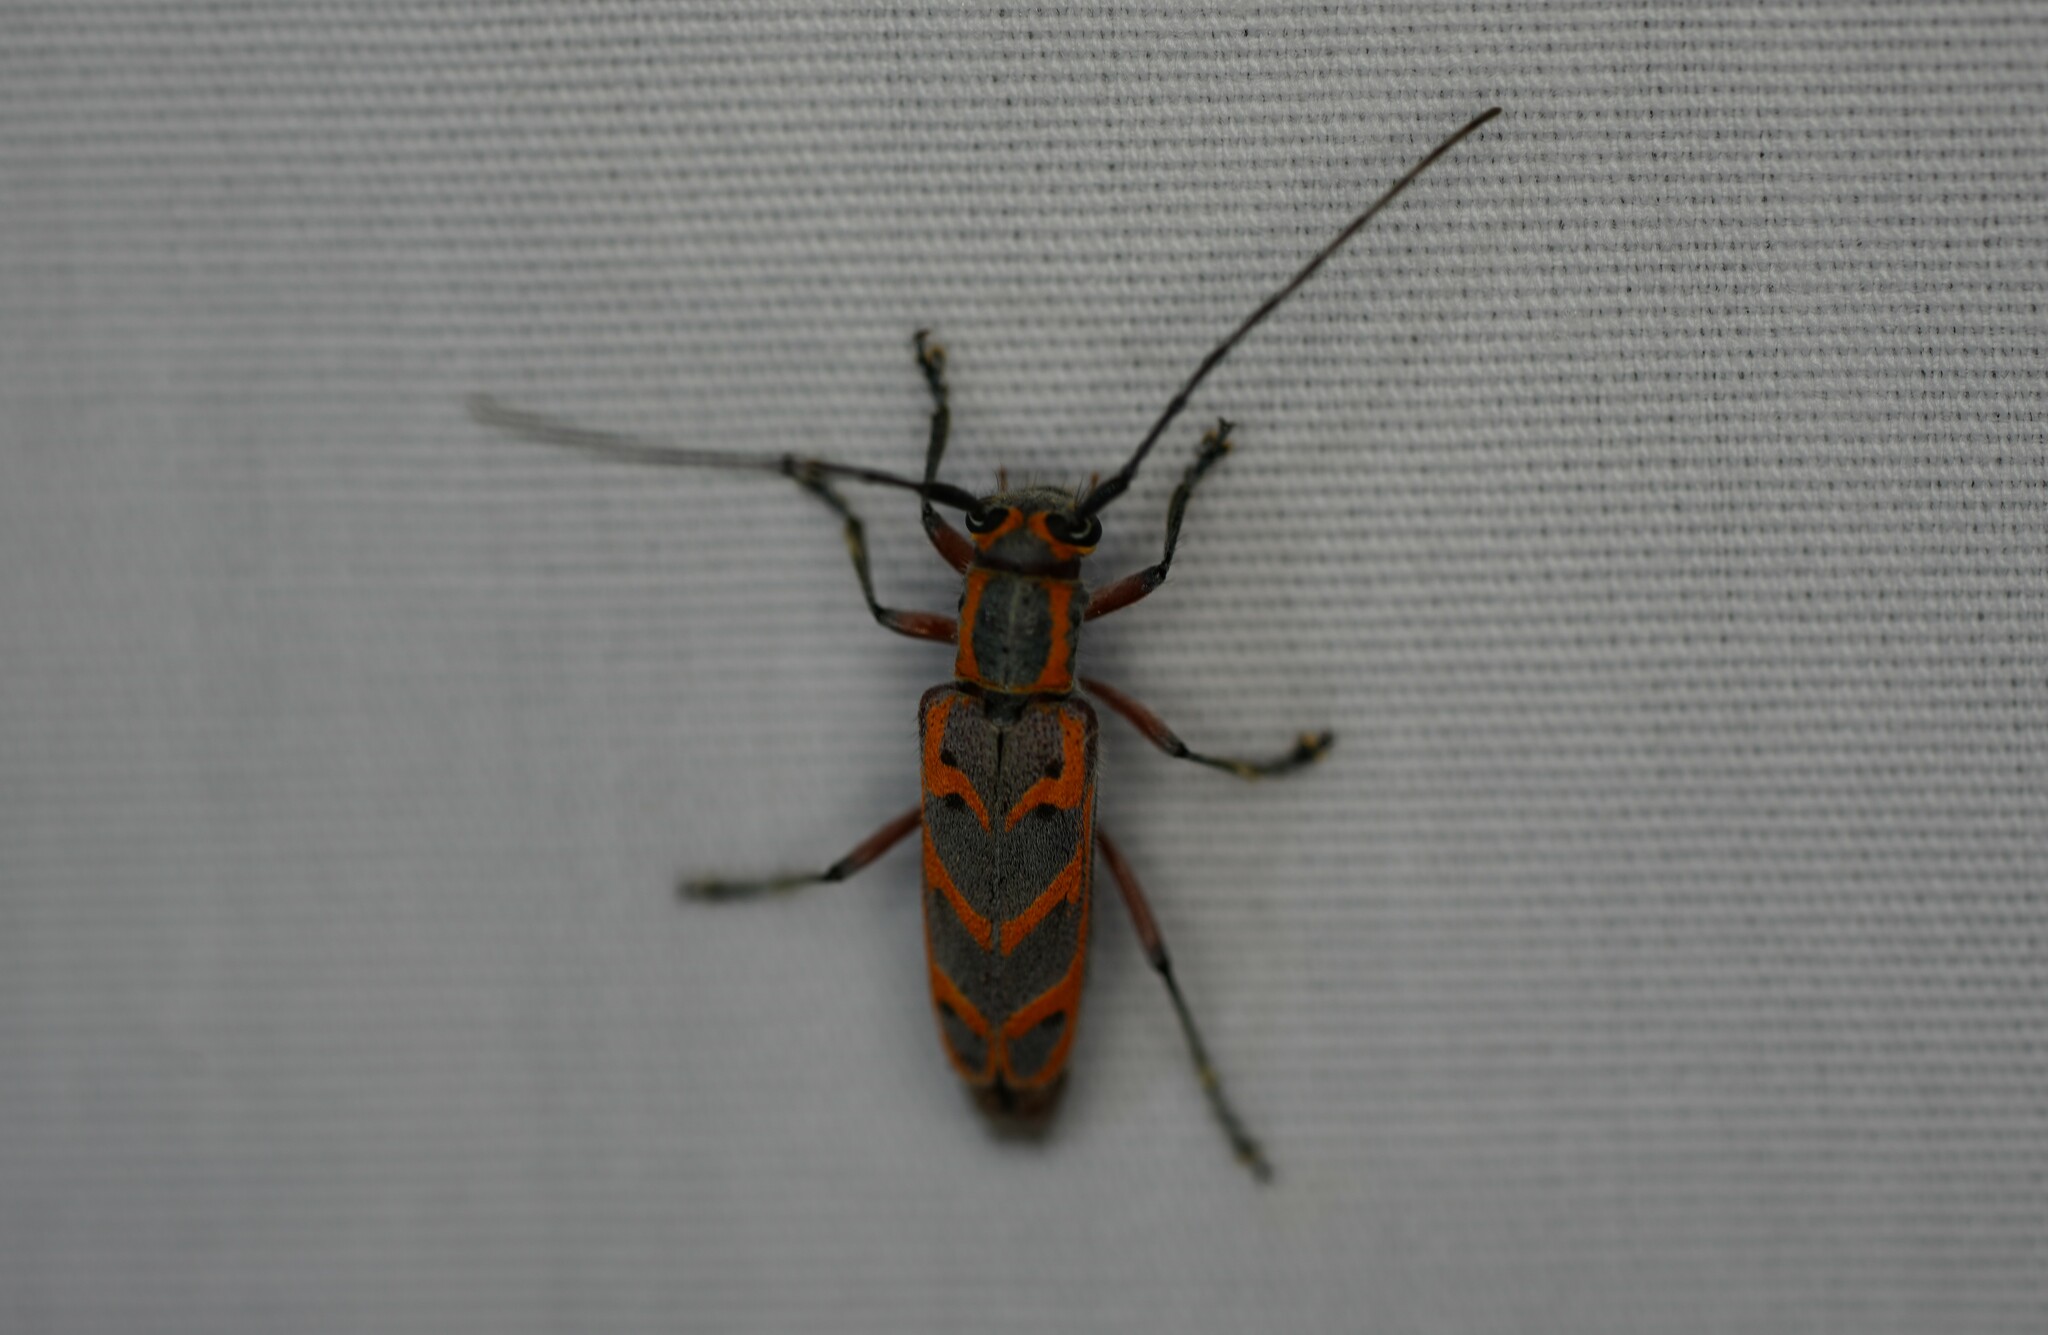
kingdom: Animalia
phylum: Arthropoda
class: Insecta
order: Coleoptera
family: Cerambycidae
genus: Saperda
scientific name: Saperda tridentata
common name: Elm borer
